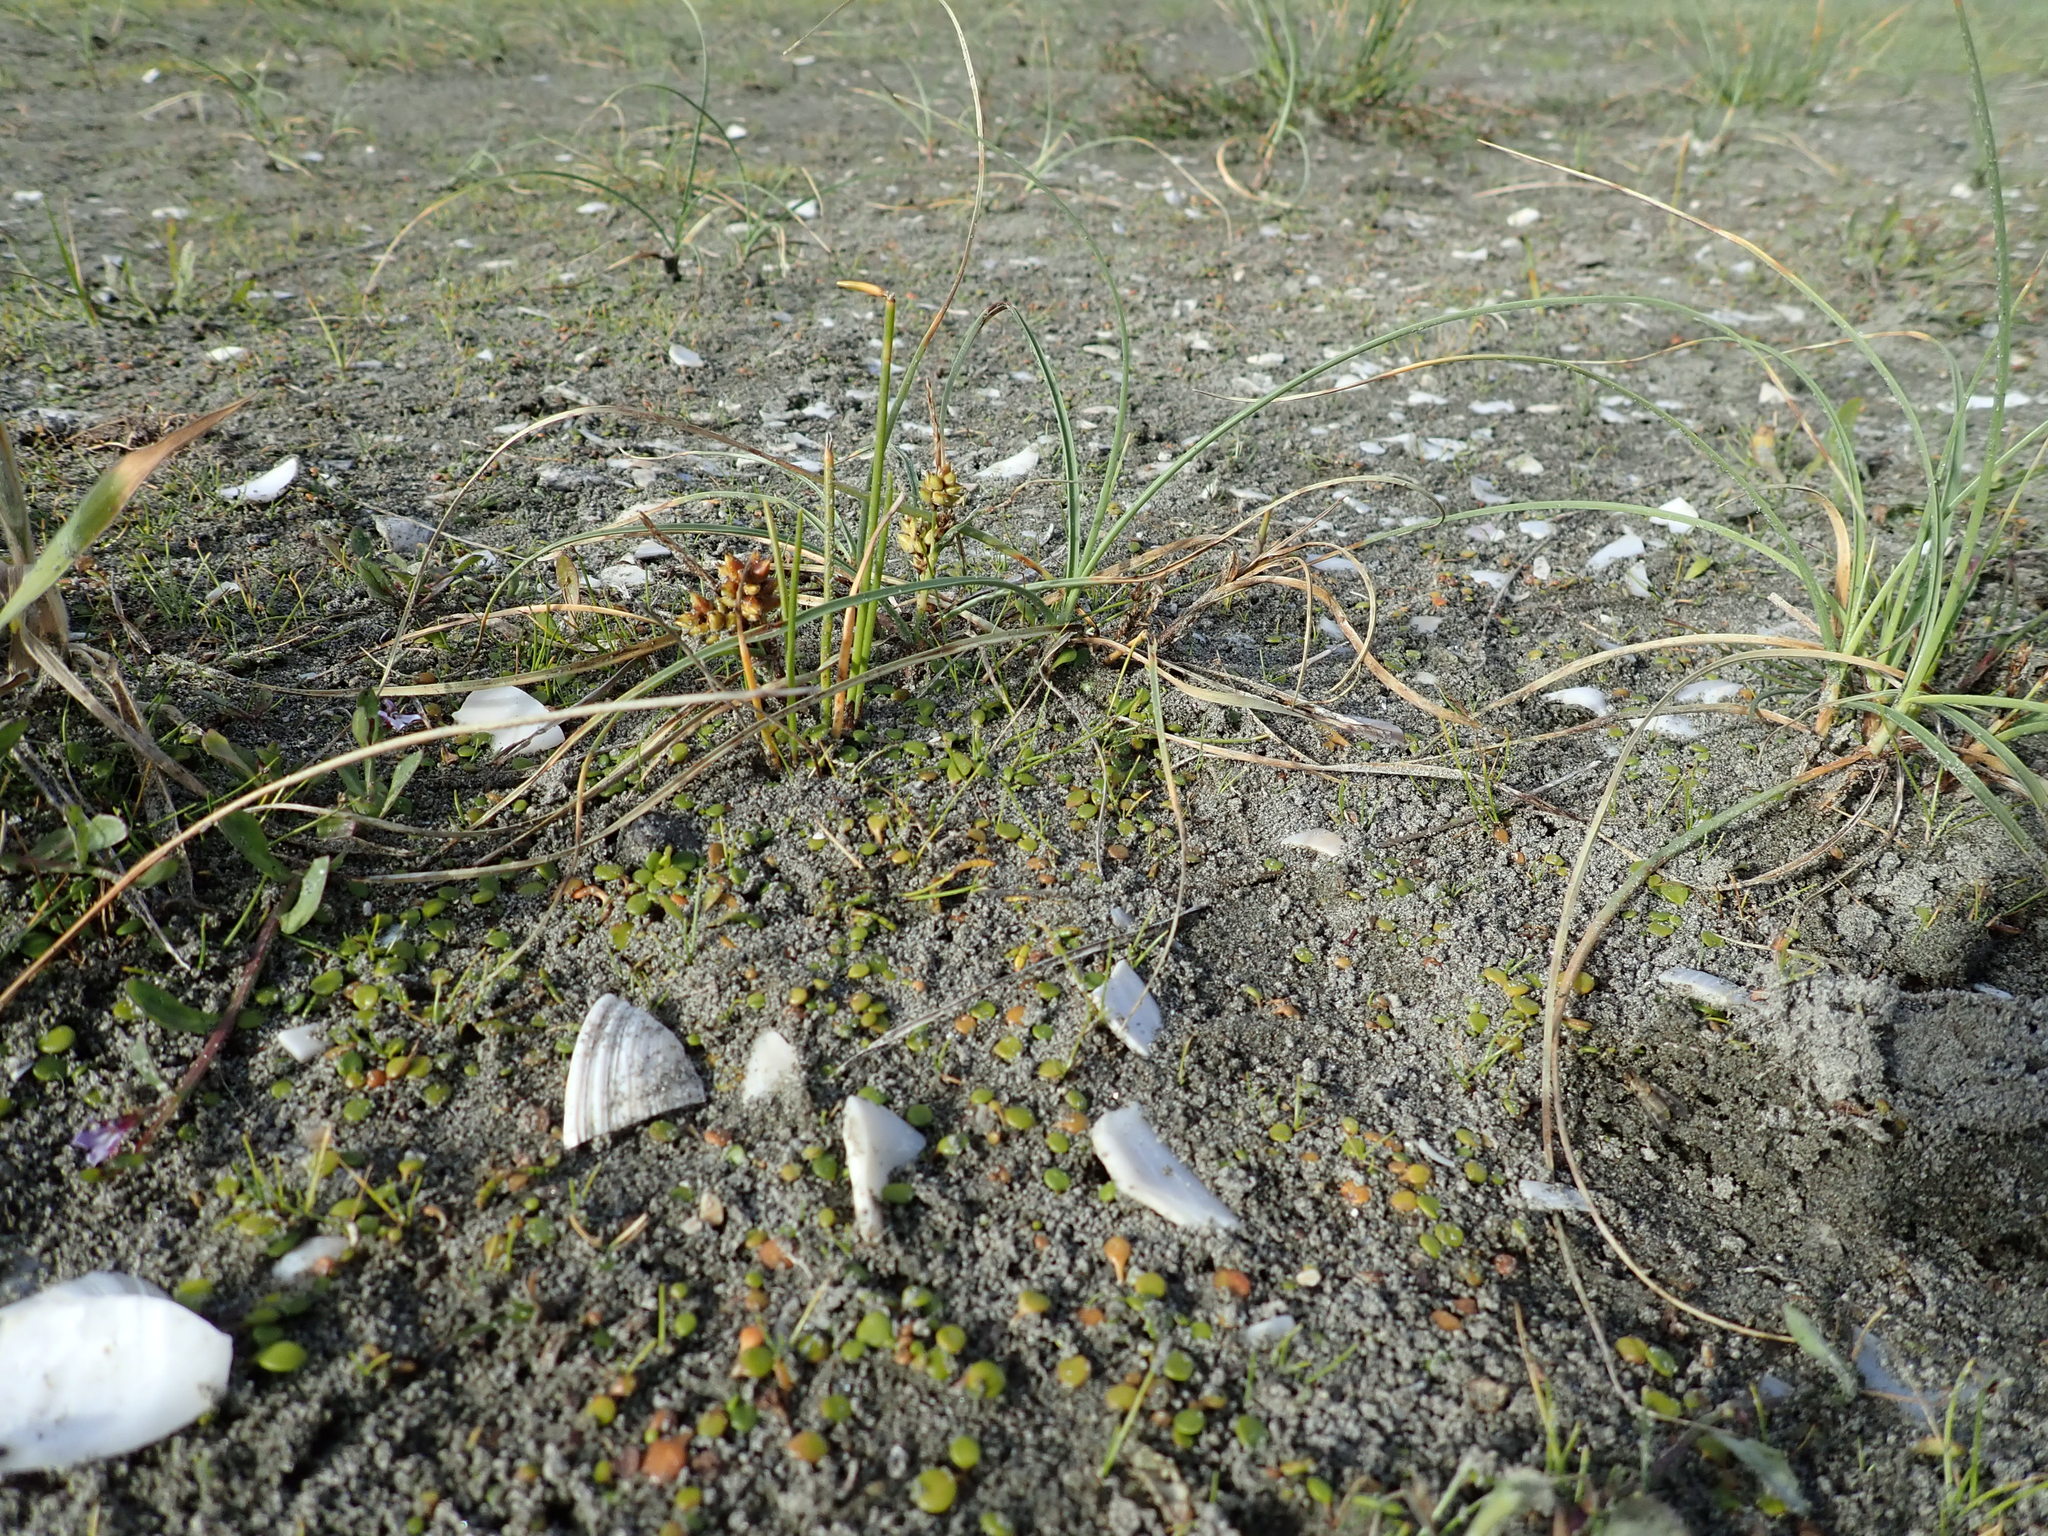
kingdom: Plantae
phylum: Tracheophyta
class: Liliopsida
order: Poales
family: Cyperaceae
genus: Carex
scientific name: Carex pumila
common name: Dwarf sedge
